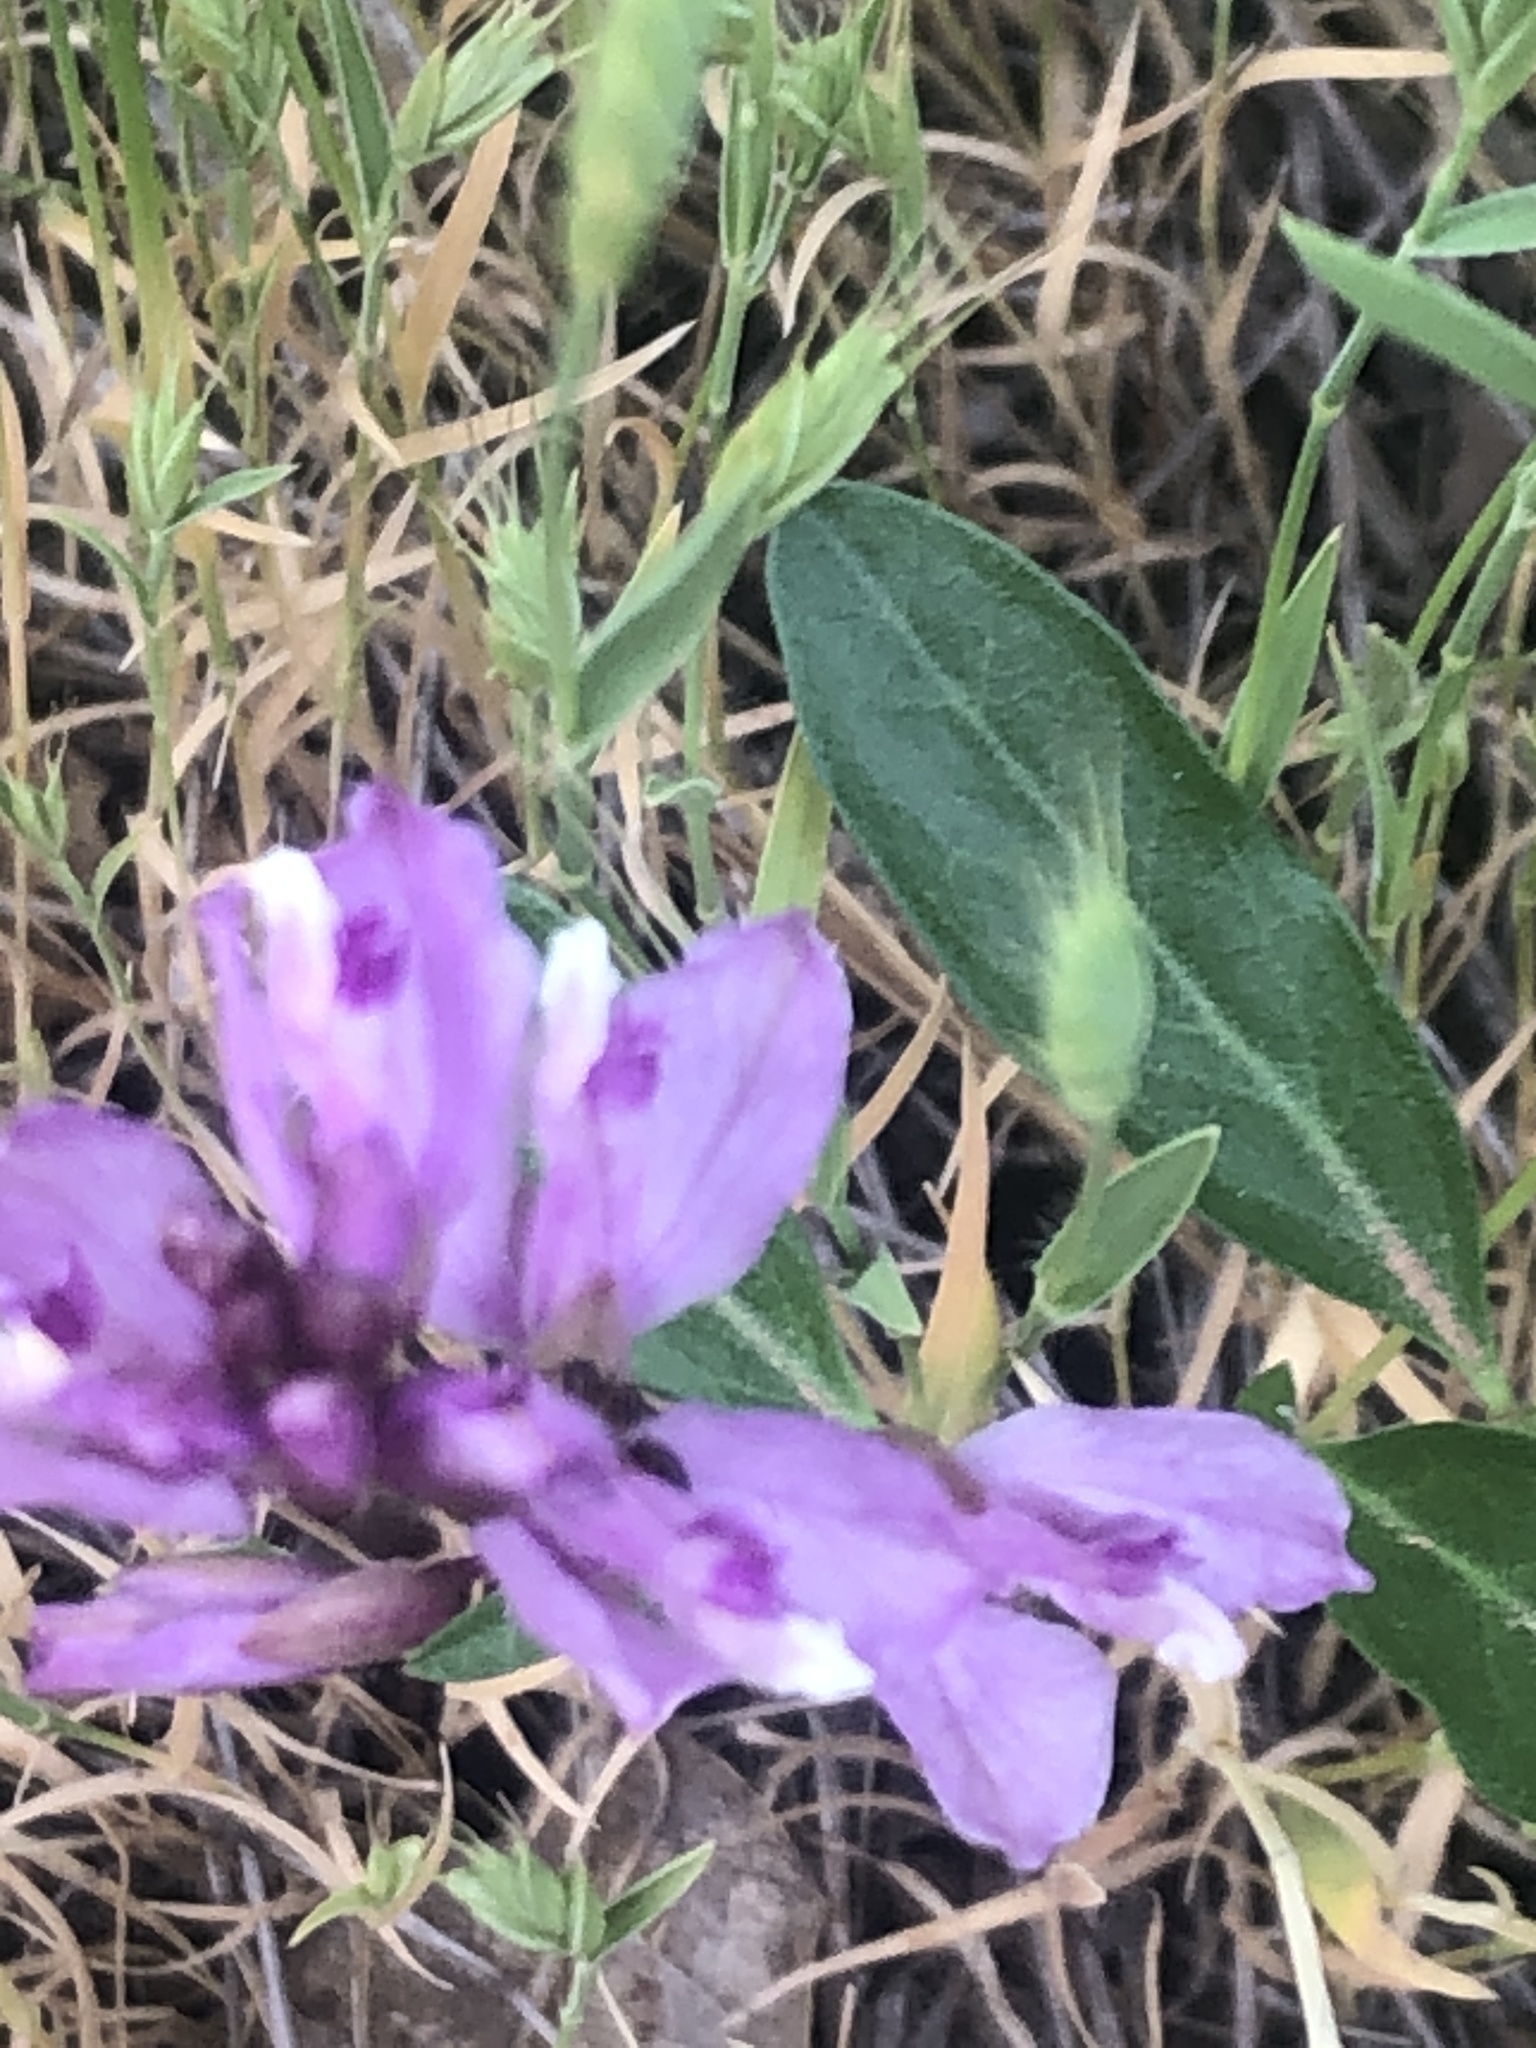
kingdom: Plantae
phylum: Tracheophyta
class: Magnoliopsida
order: Fabales
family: Polygalaceae
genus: Rhinotropis
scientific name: Rhinotropis californica
